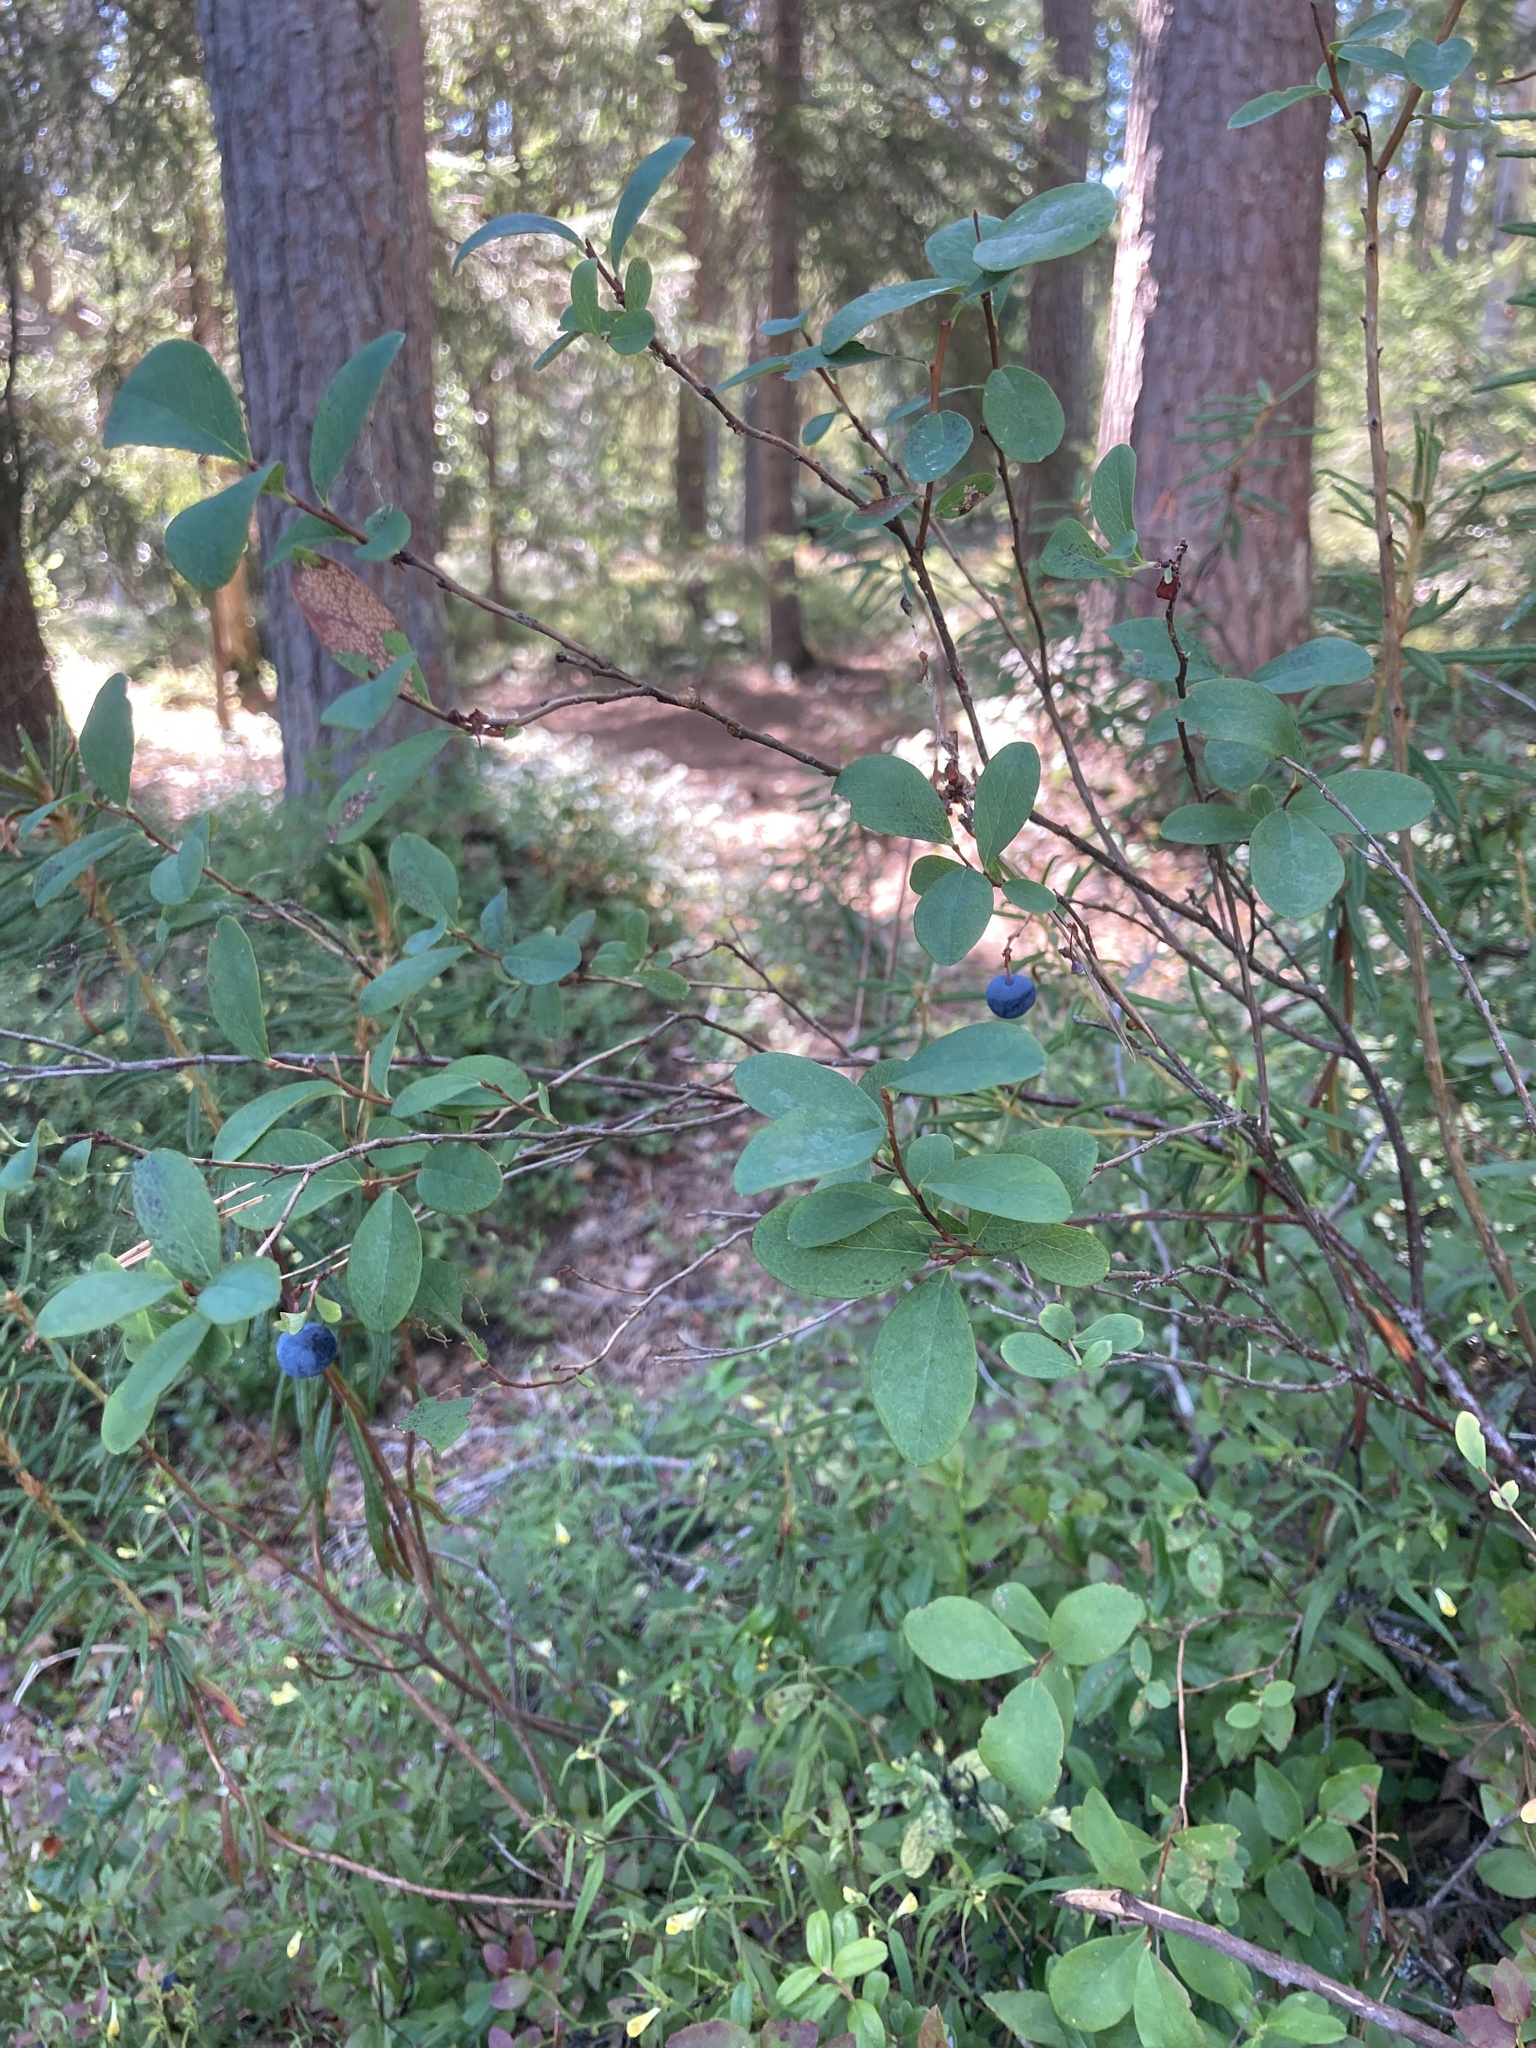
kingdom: Plantae
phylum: Tracheophyta
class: Magnoliopsida
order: Ericales
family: Ericaceae
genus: Vaccinium
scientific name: Vaccinium uliginosum
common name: Bog bilberry
